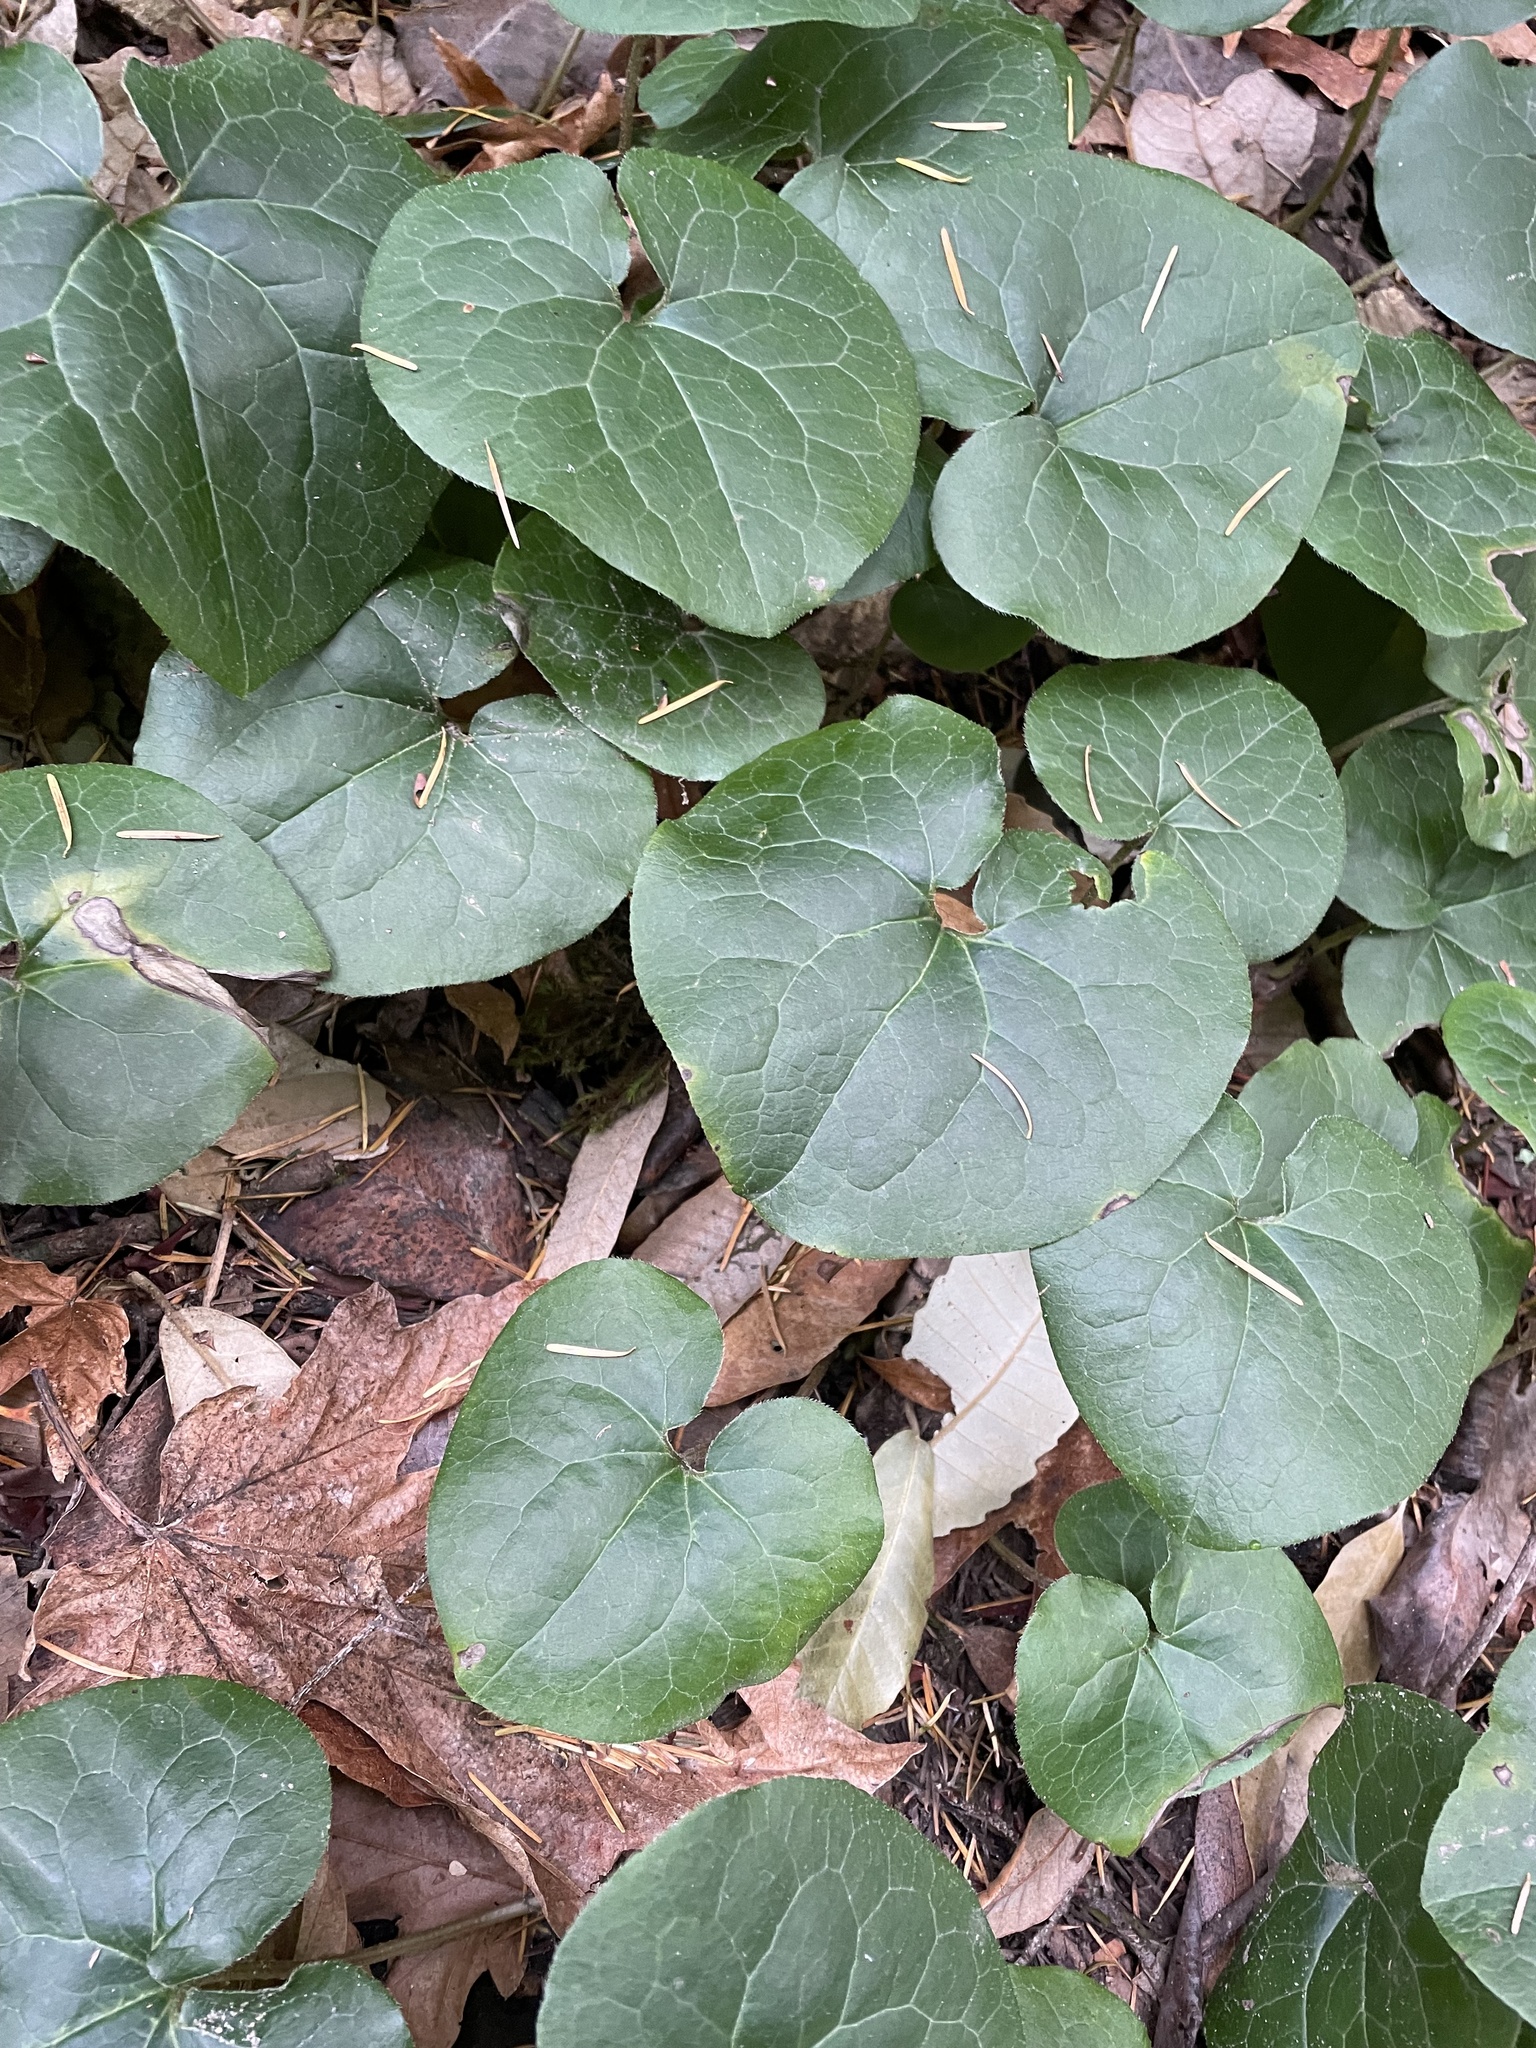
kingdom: Plantae
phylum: Tracheophyta
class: Magnoliopsida
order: Piperales
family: Aristolochiaceae
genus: Asarum
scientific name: Asarum caudatum
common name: Wild ginger
